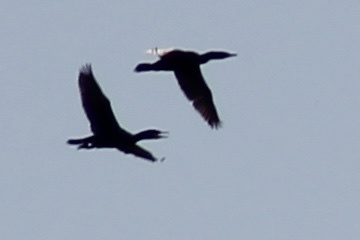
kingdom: Animalia
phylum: Chordata
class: Aves
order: Suliformes
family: Phalacrocoracidae
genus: Phalacrocorax
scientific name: Phalacrocorax auritus
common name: Double-crested cormorant
